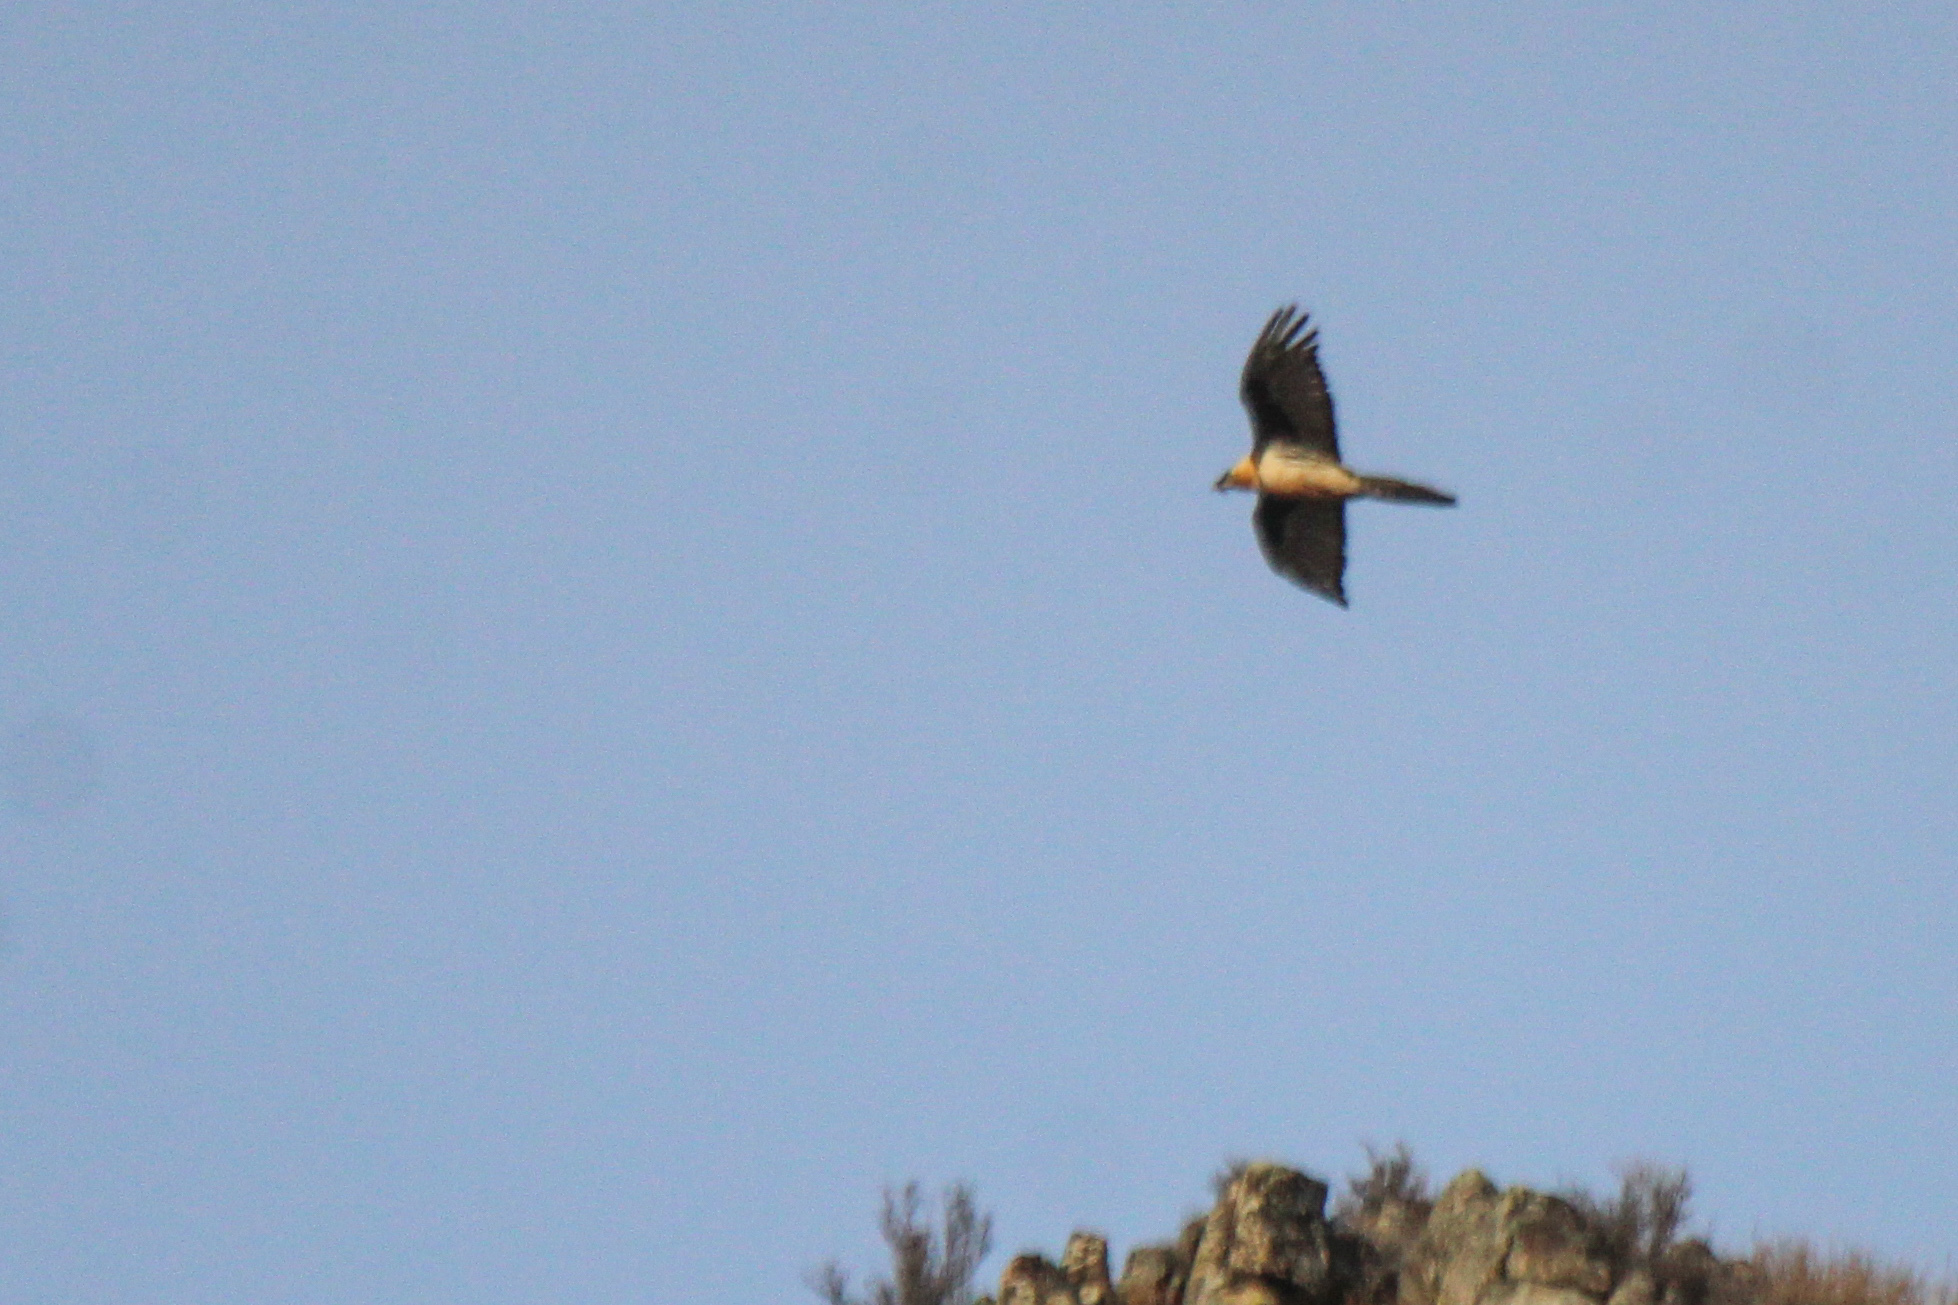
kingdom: Animalia
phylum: Chordata
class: Aves
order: Accipitriformes
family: Accipitridae
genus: Gypaetus
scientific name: Gypaetus barbatus
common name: Bearded vulture
